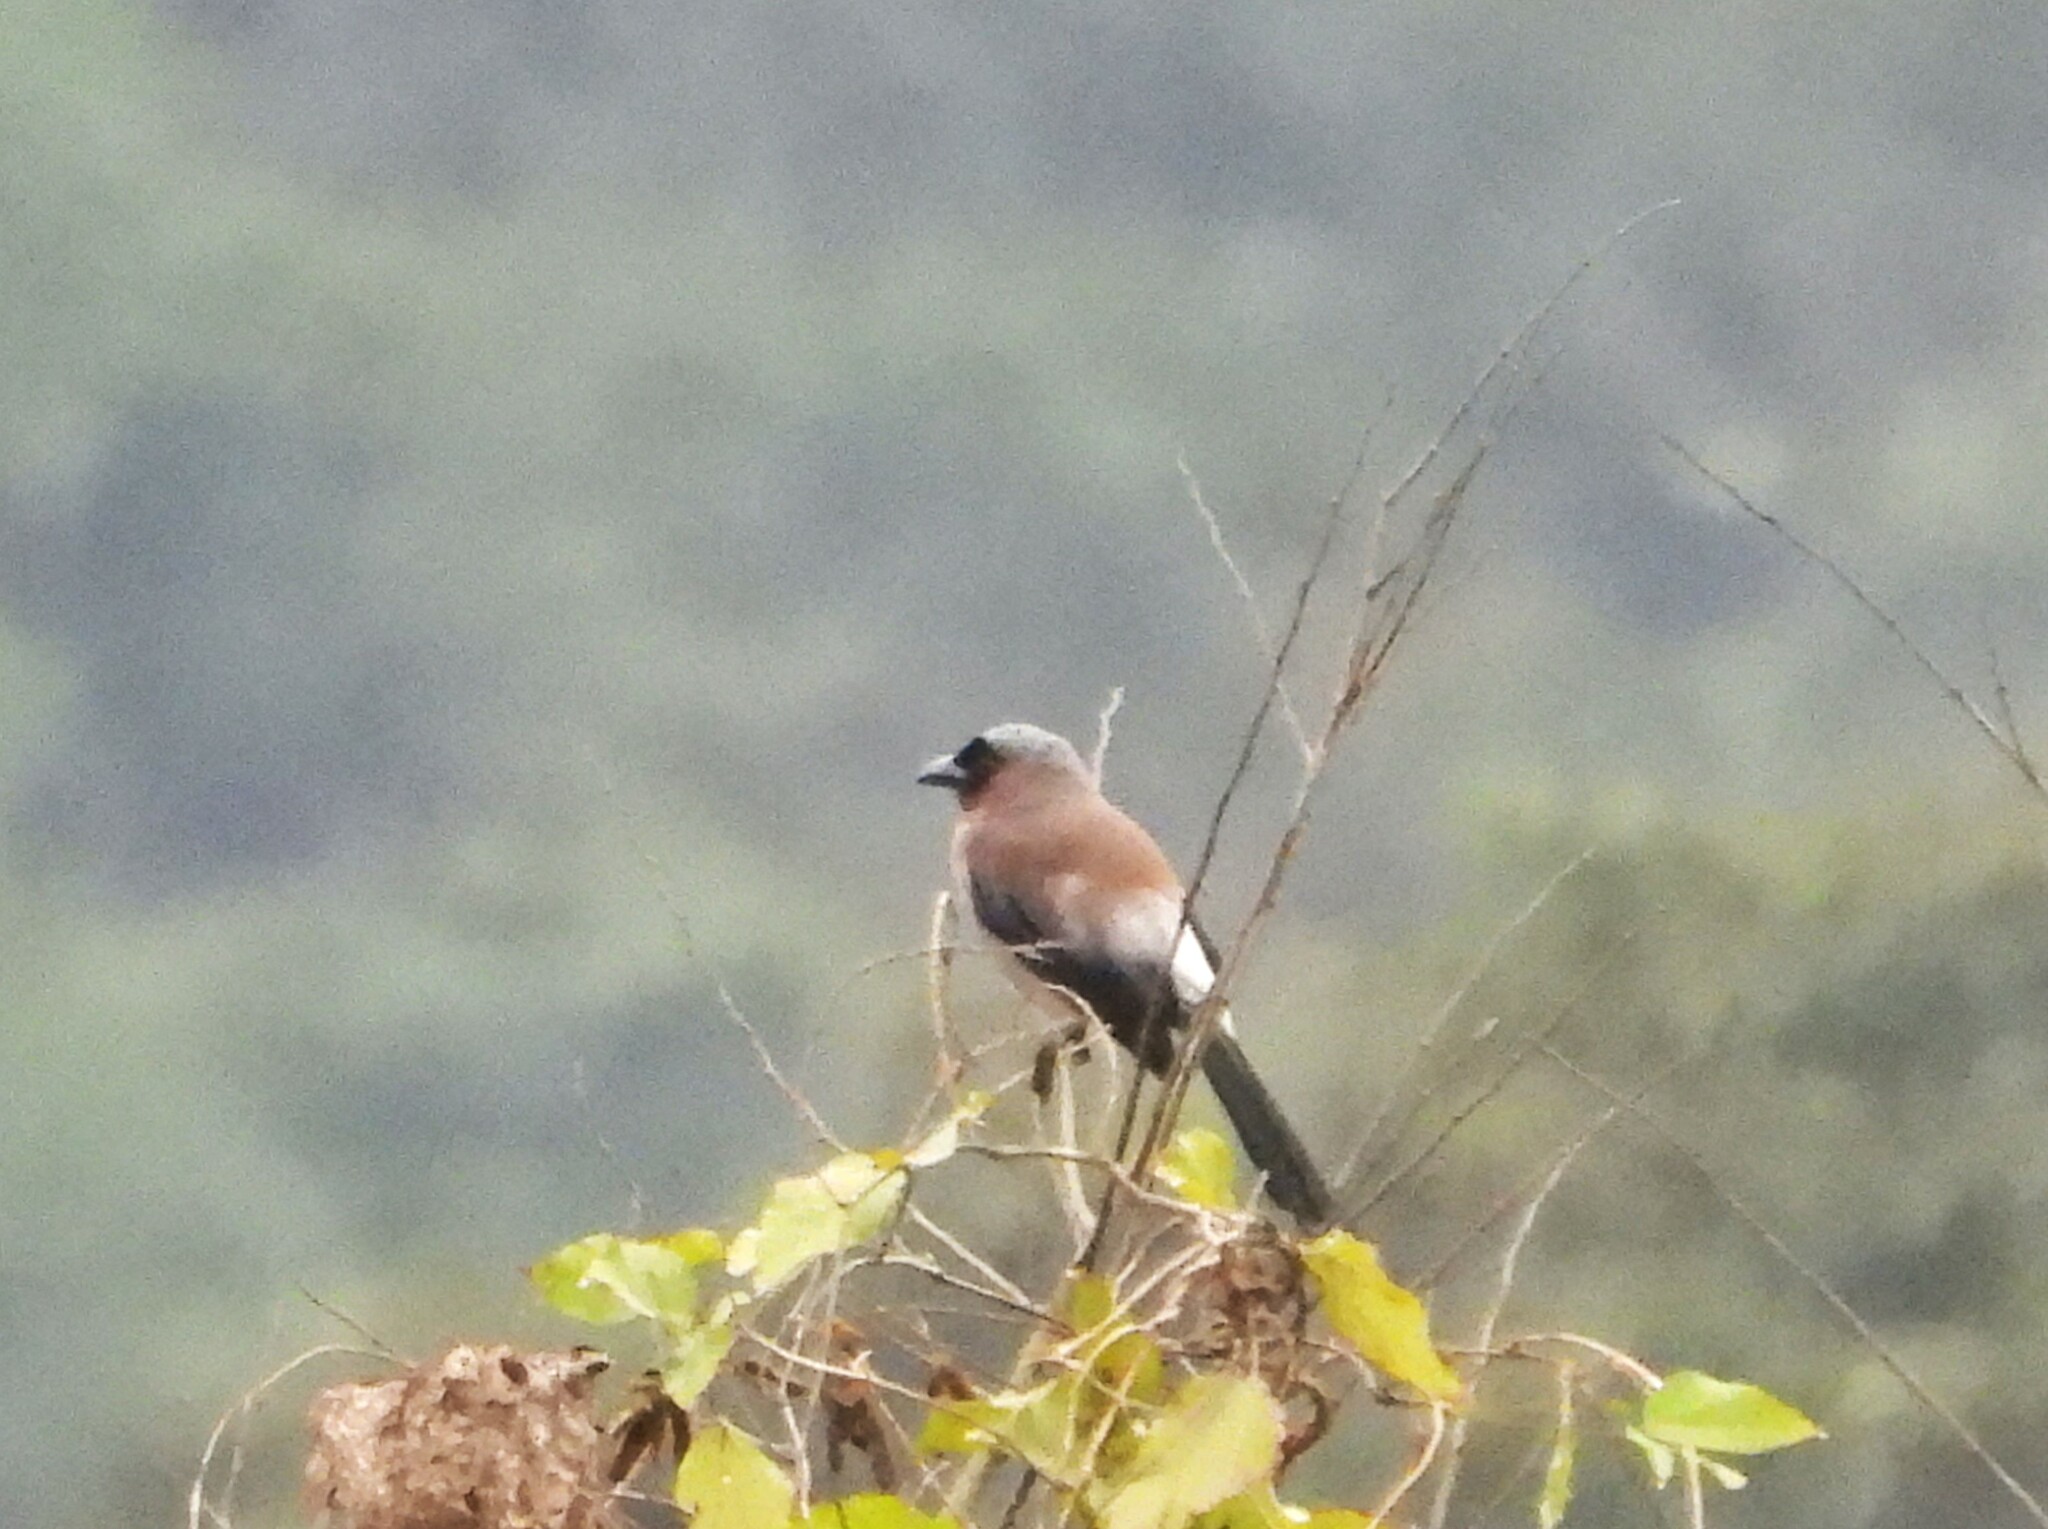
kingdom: Animalia
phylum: Chordata
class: Aves
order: Passeriformes
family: Corvidae
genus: Dendrocitta
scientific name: Dendrocitta formosae
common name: Grey treepie
